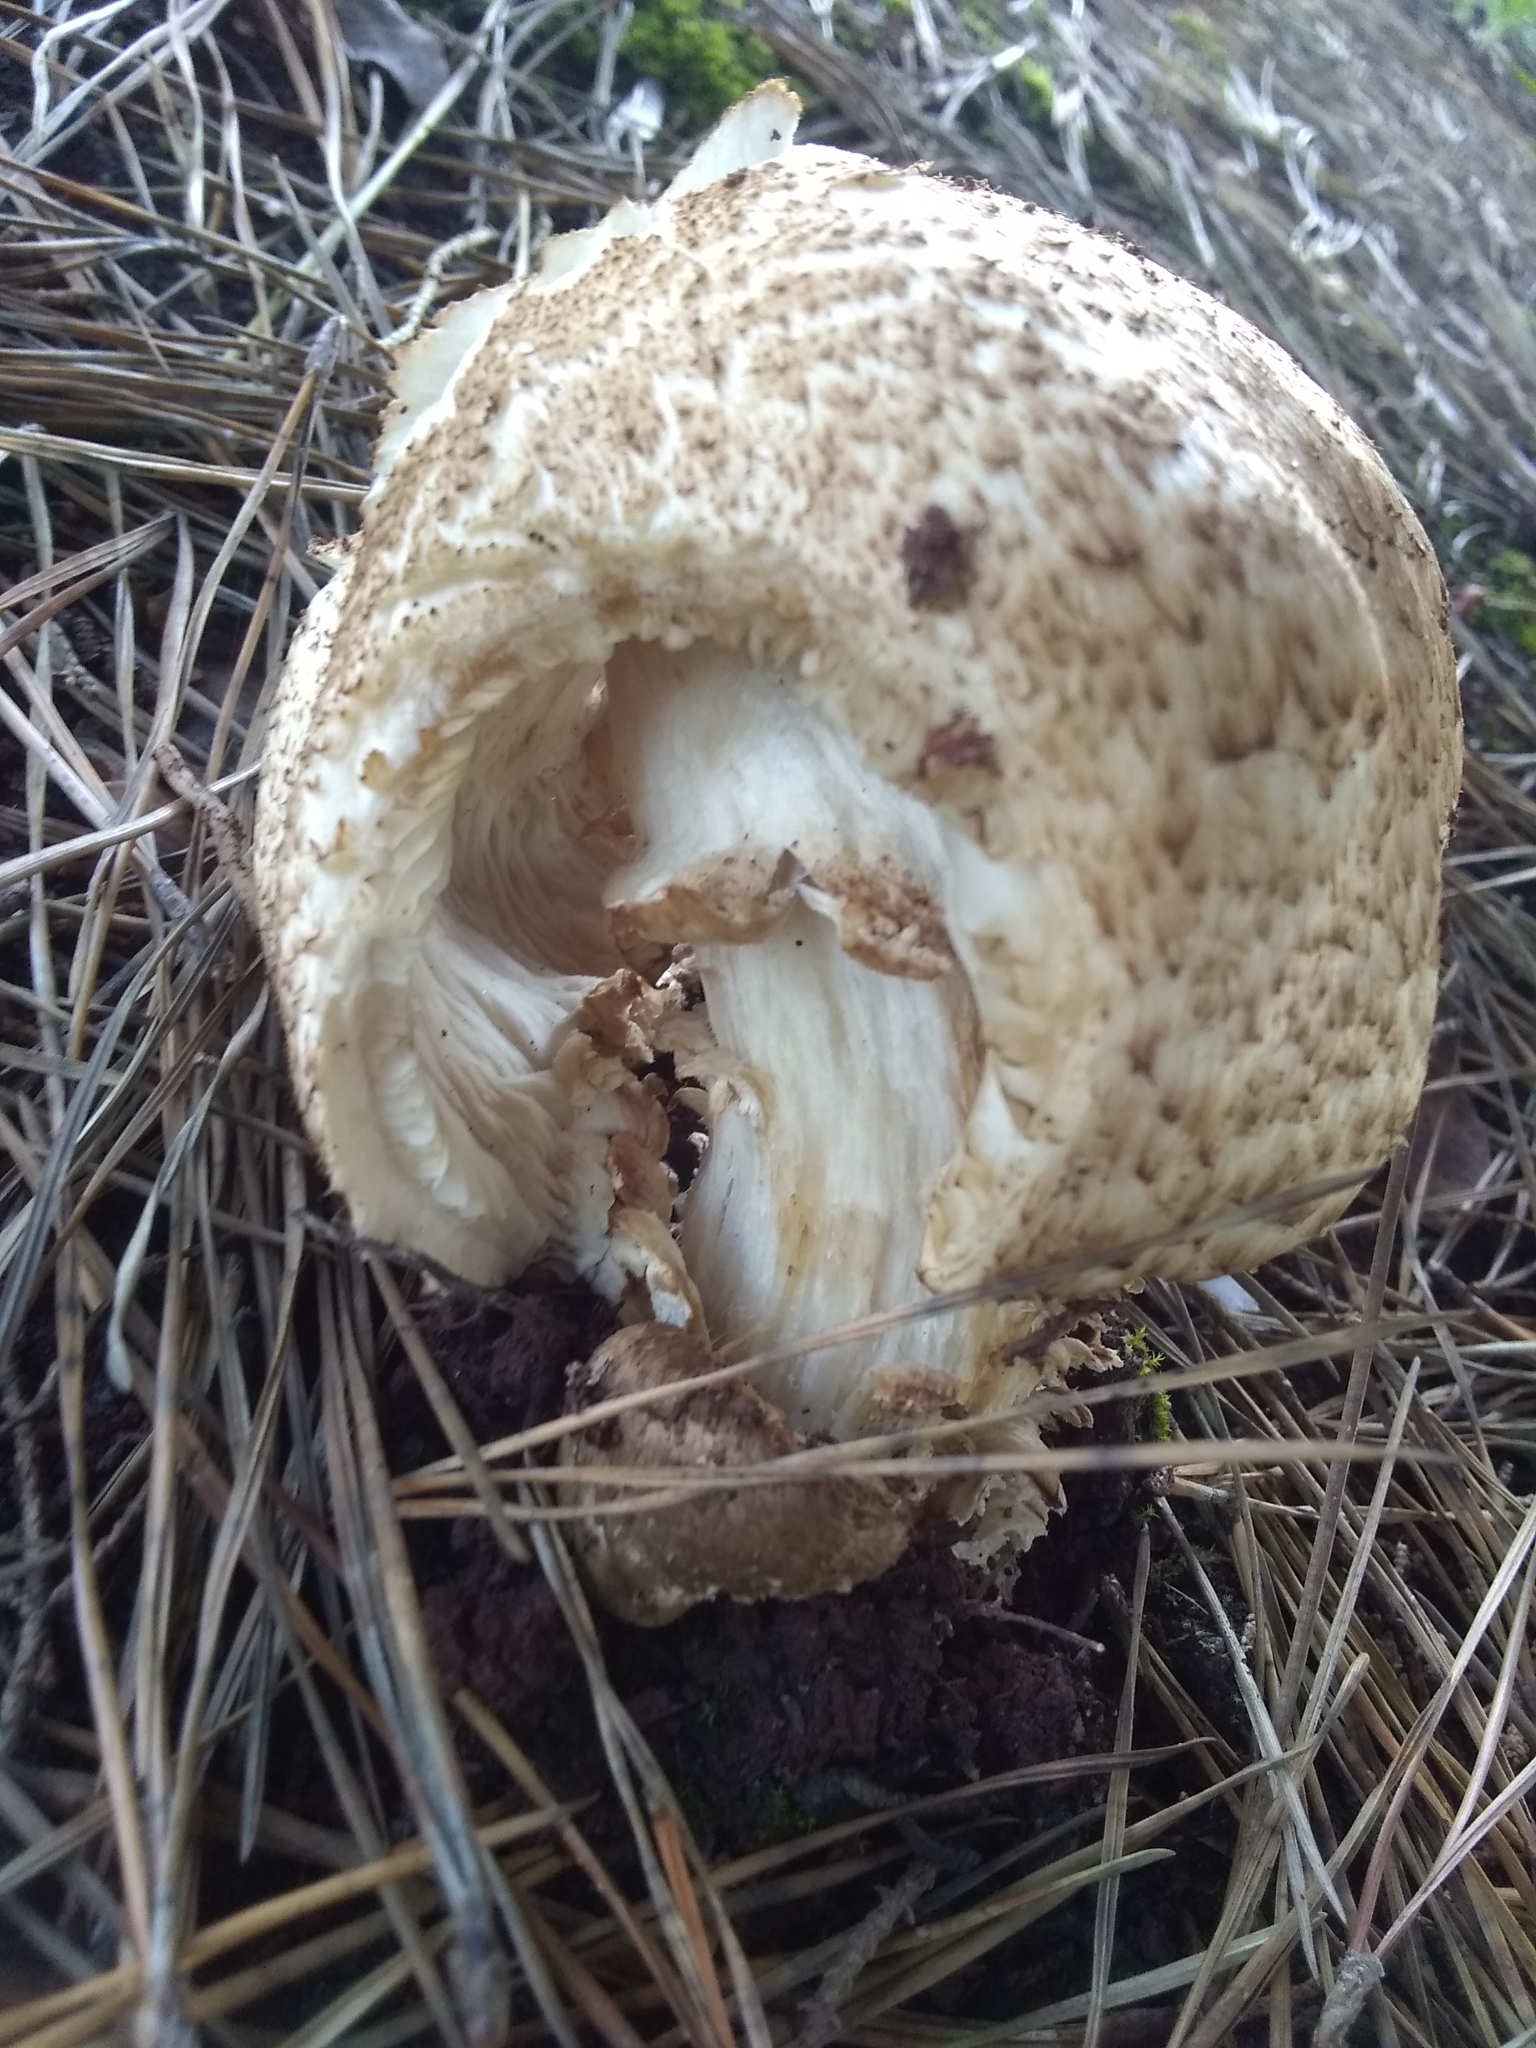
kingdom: Fungi
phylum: Basidiomycota
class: Agaricomycetes
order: Agaricales
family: Agaricaceae
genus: Agaricus
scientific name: Agaricus augustus
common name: Prince
